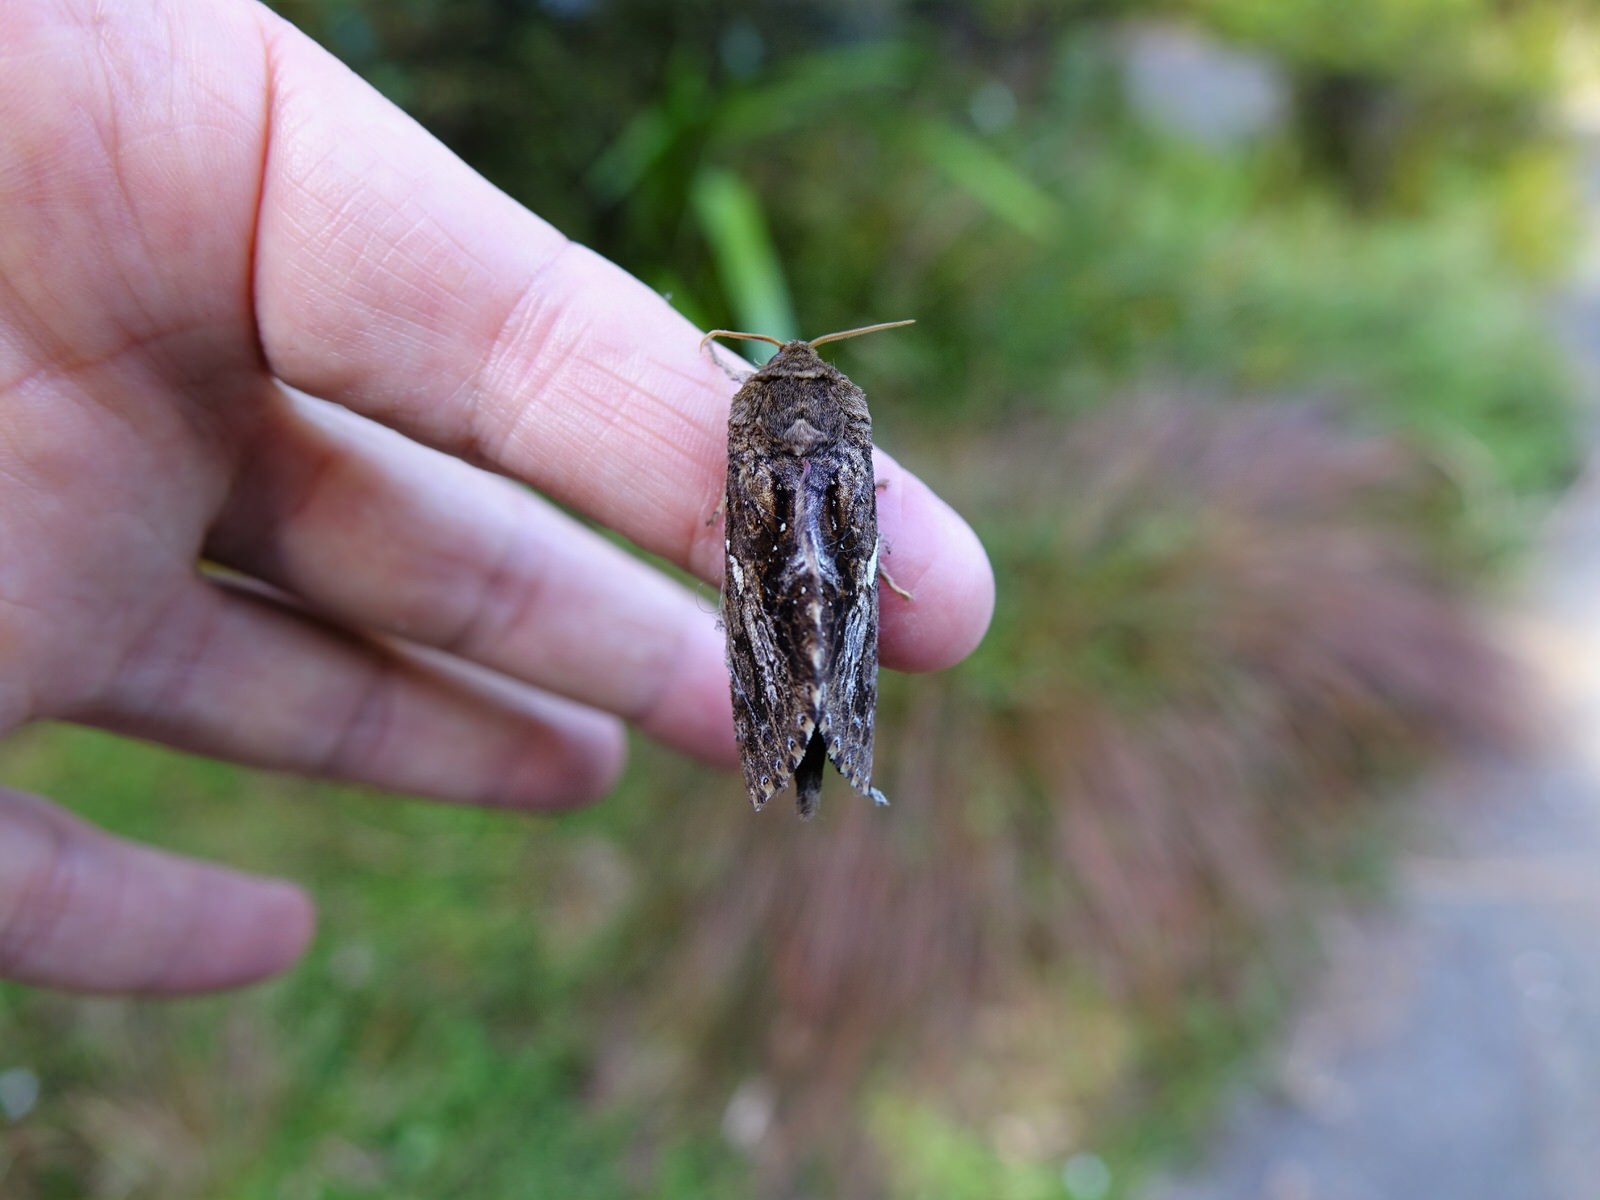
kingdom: Animalia
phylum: Arthropoda
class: Insecta
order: Lepidoptera
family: Hepialidae
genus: Dumbletonius
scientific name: Dumbletonius unimaculata
